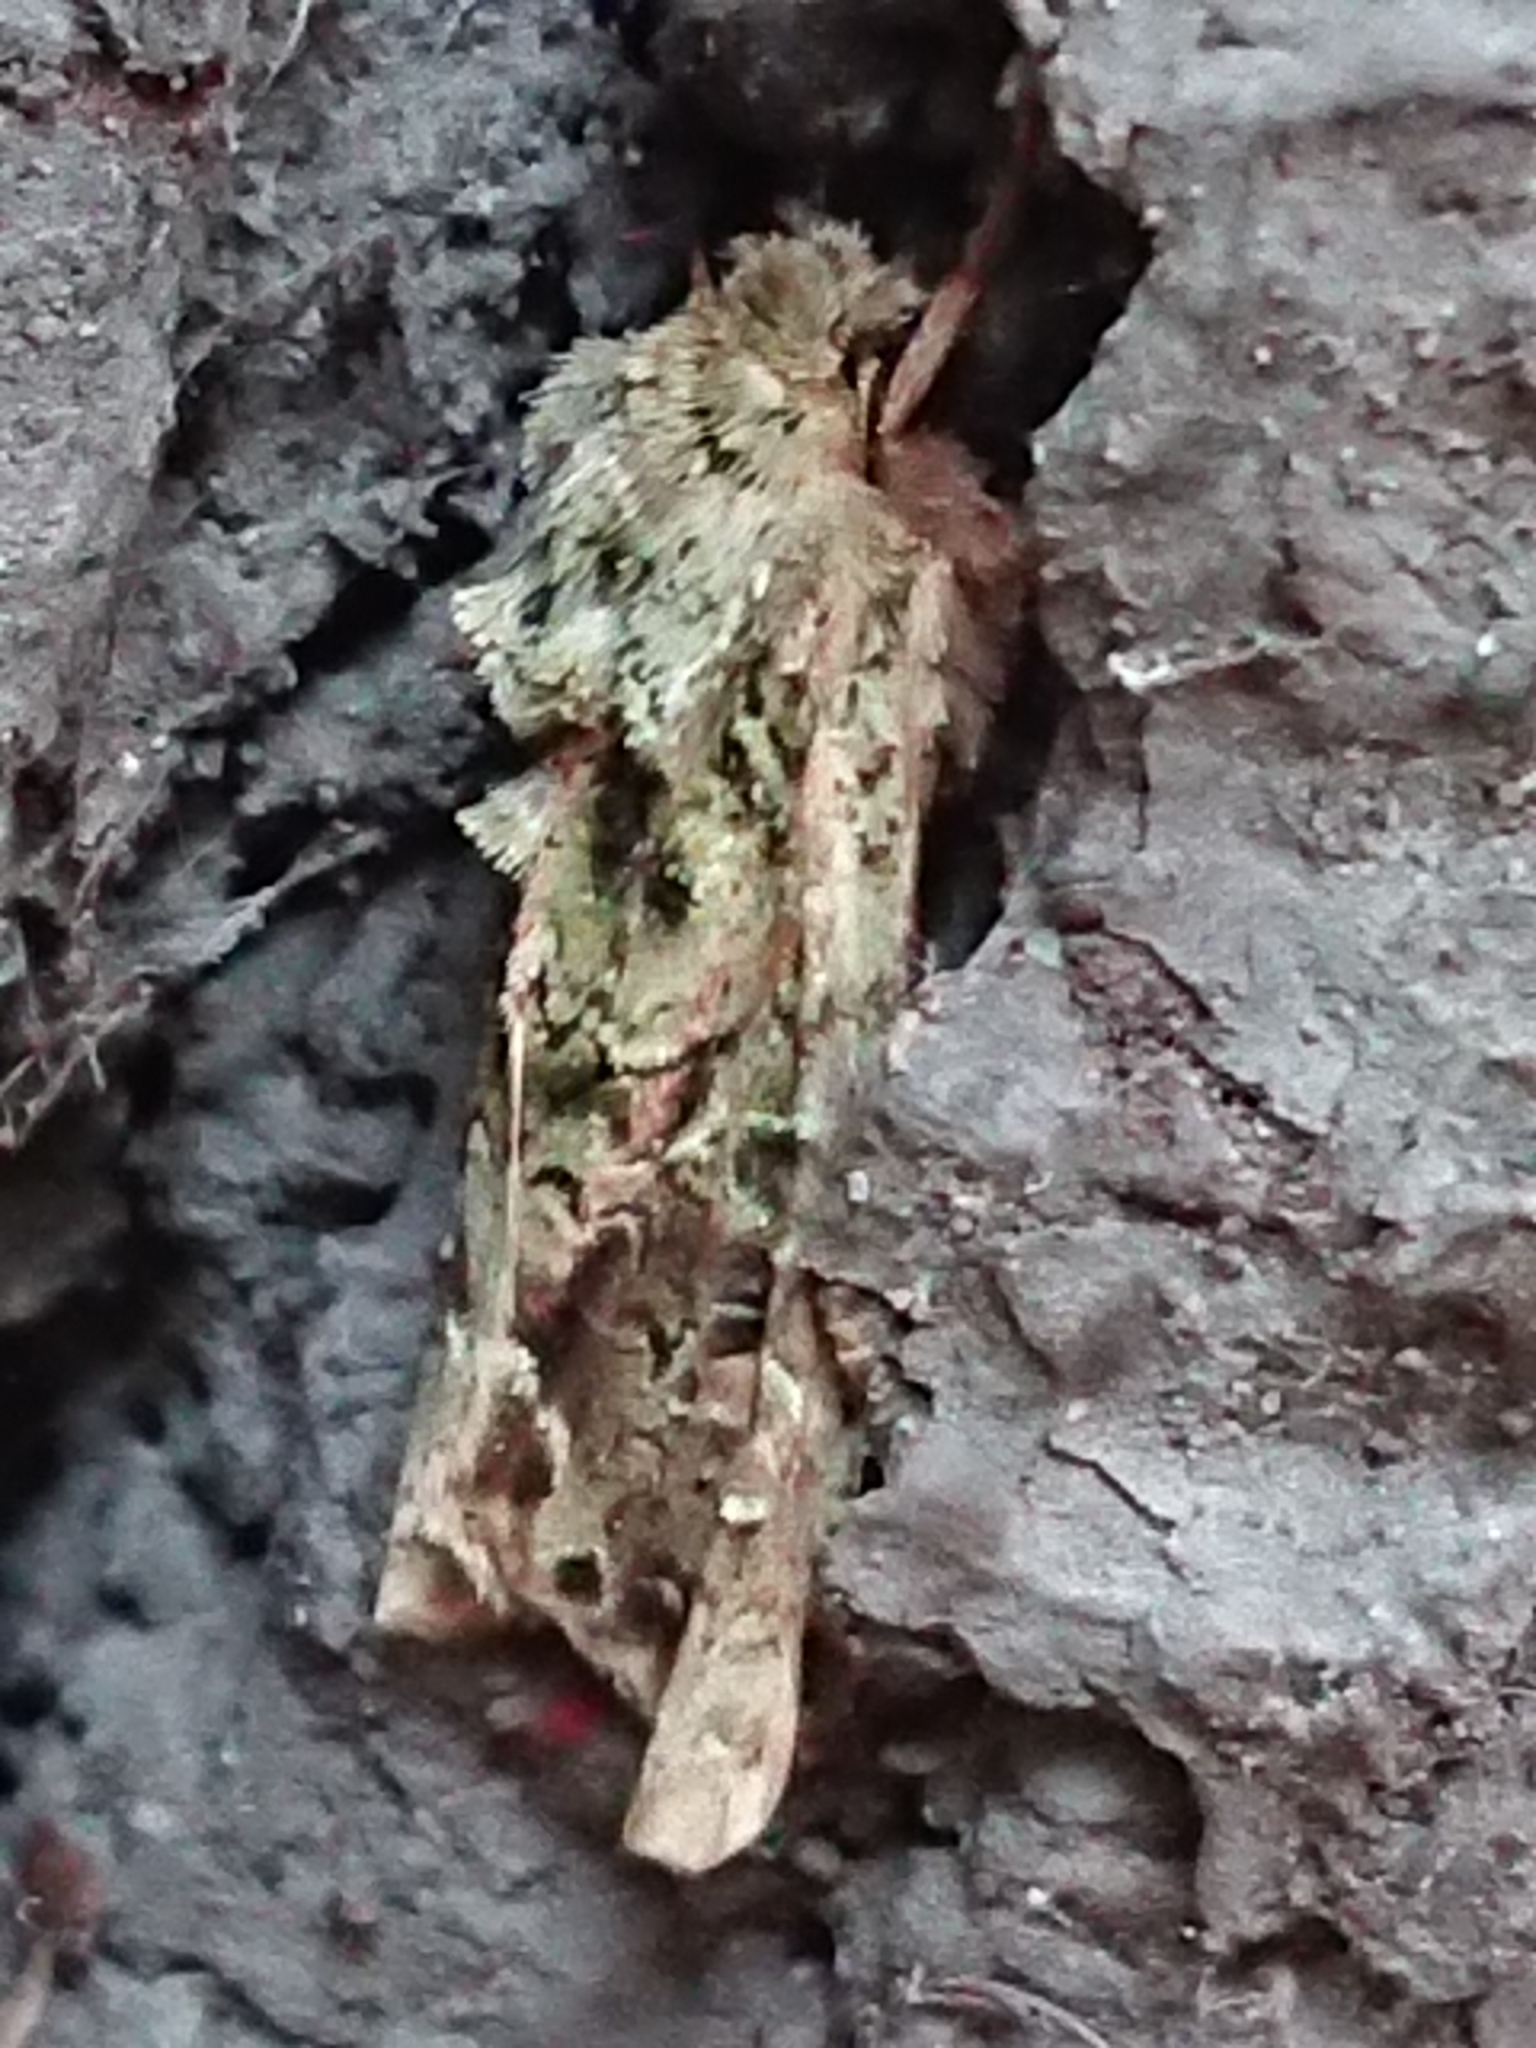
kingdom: Animalia
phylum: Arthropoda
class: Insecta
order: Lepidoptera
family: Noctuidae
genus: Ichneutica
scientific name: Ichneutica
